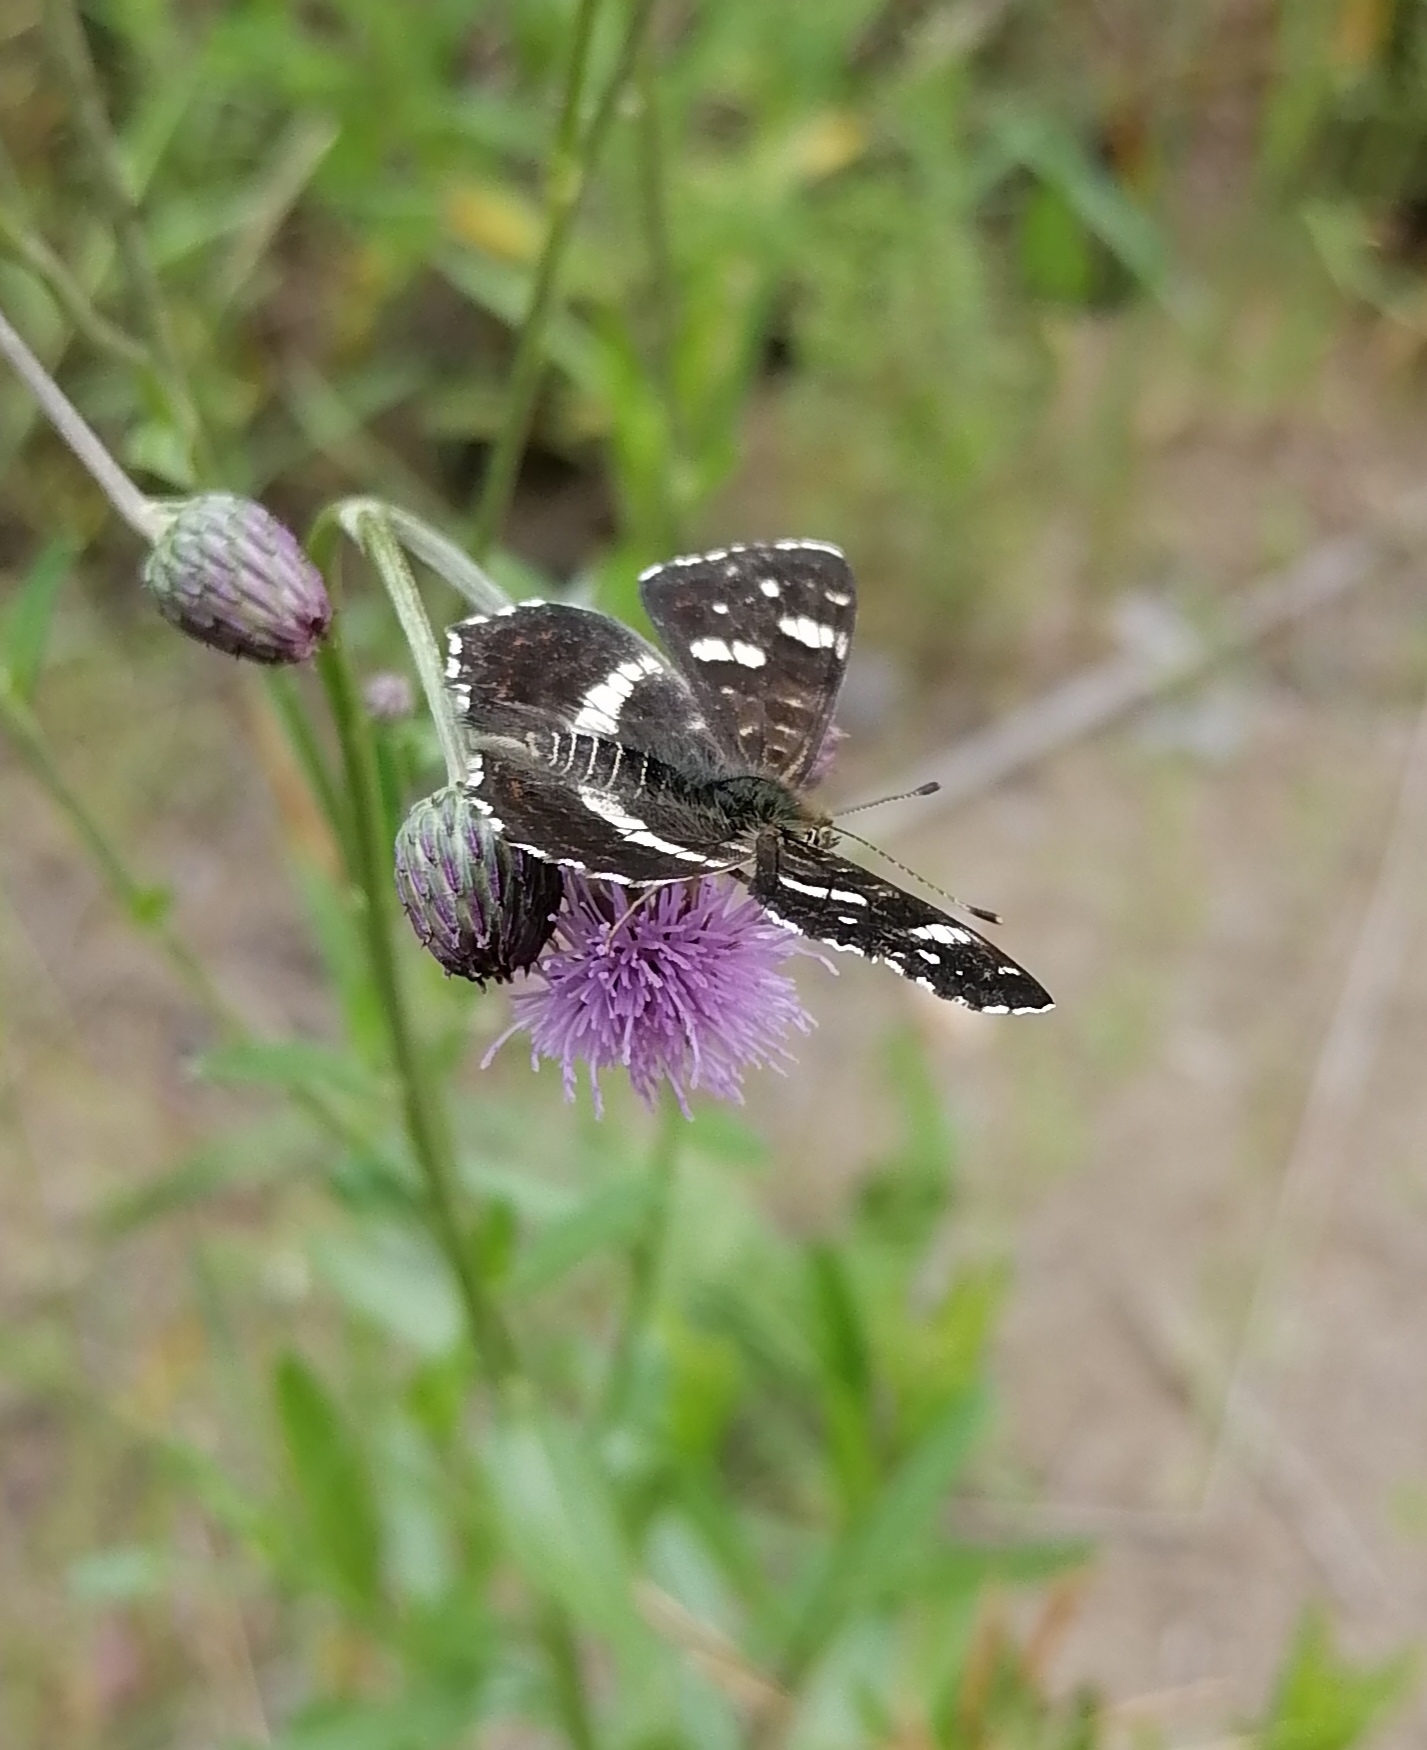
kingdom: Animalia
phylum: Arthropoda
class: Insecta
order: Lepidoptera
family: Nymphalidae
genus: Araschnia
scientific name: Araschnia levana
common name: Map butterfly
